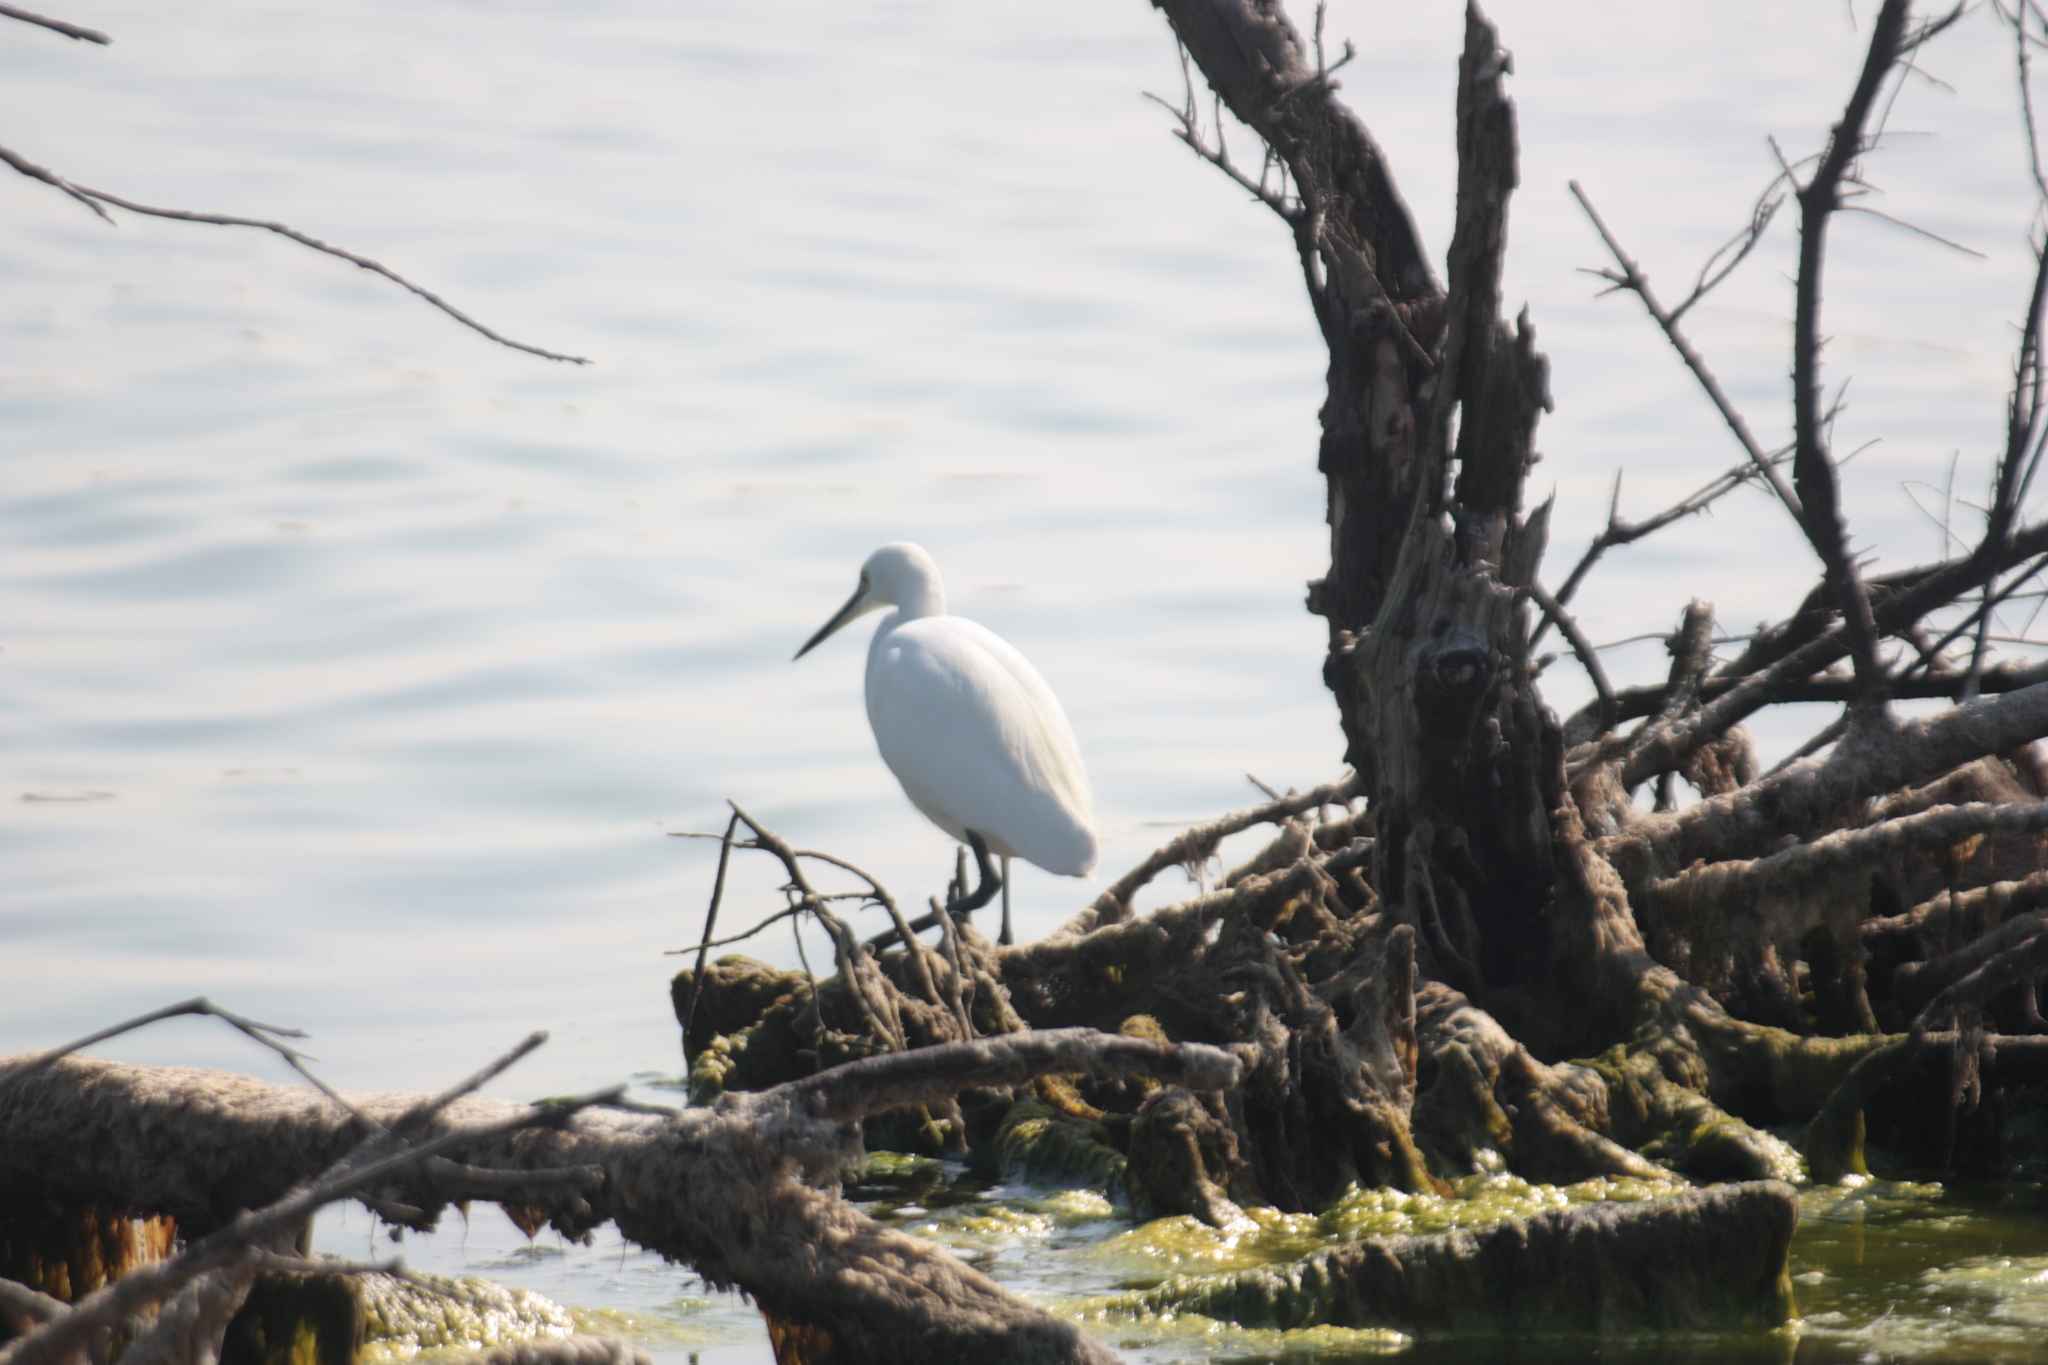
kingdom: Animalia
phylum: Chordata
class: Aves
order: Pelecaniformes
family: Ardeidae
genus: Egretta
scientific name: Egretta garzetta
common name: Little egret
